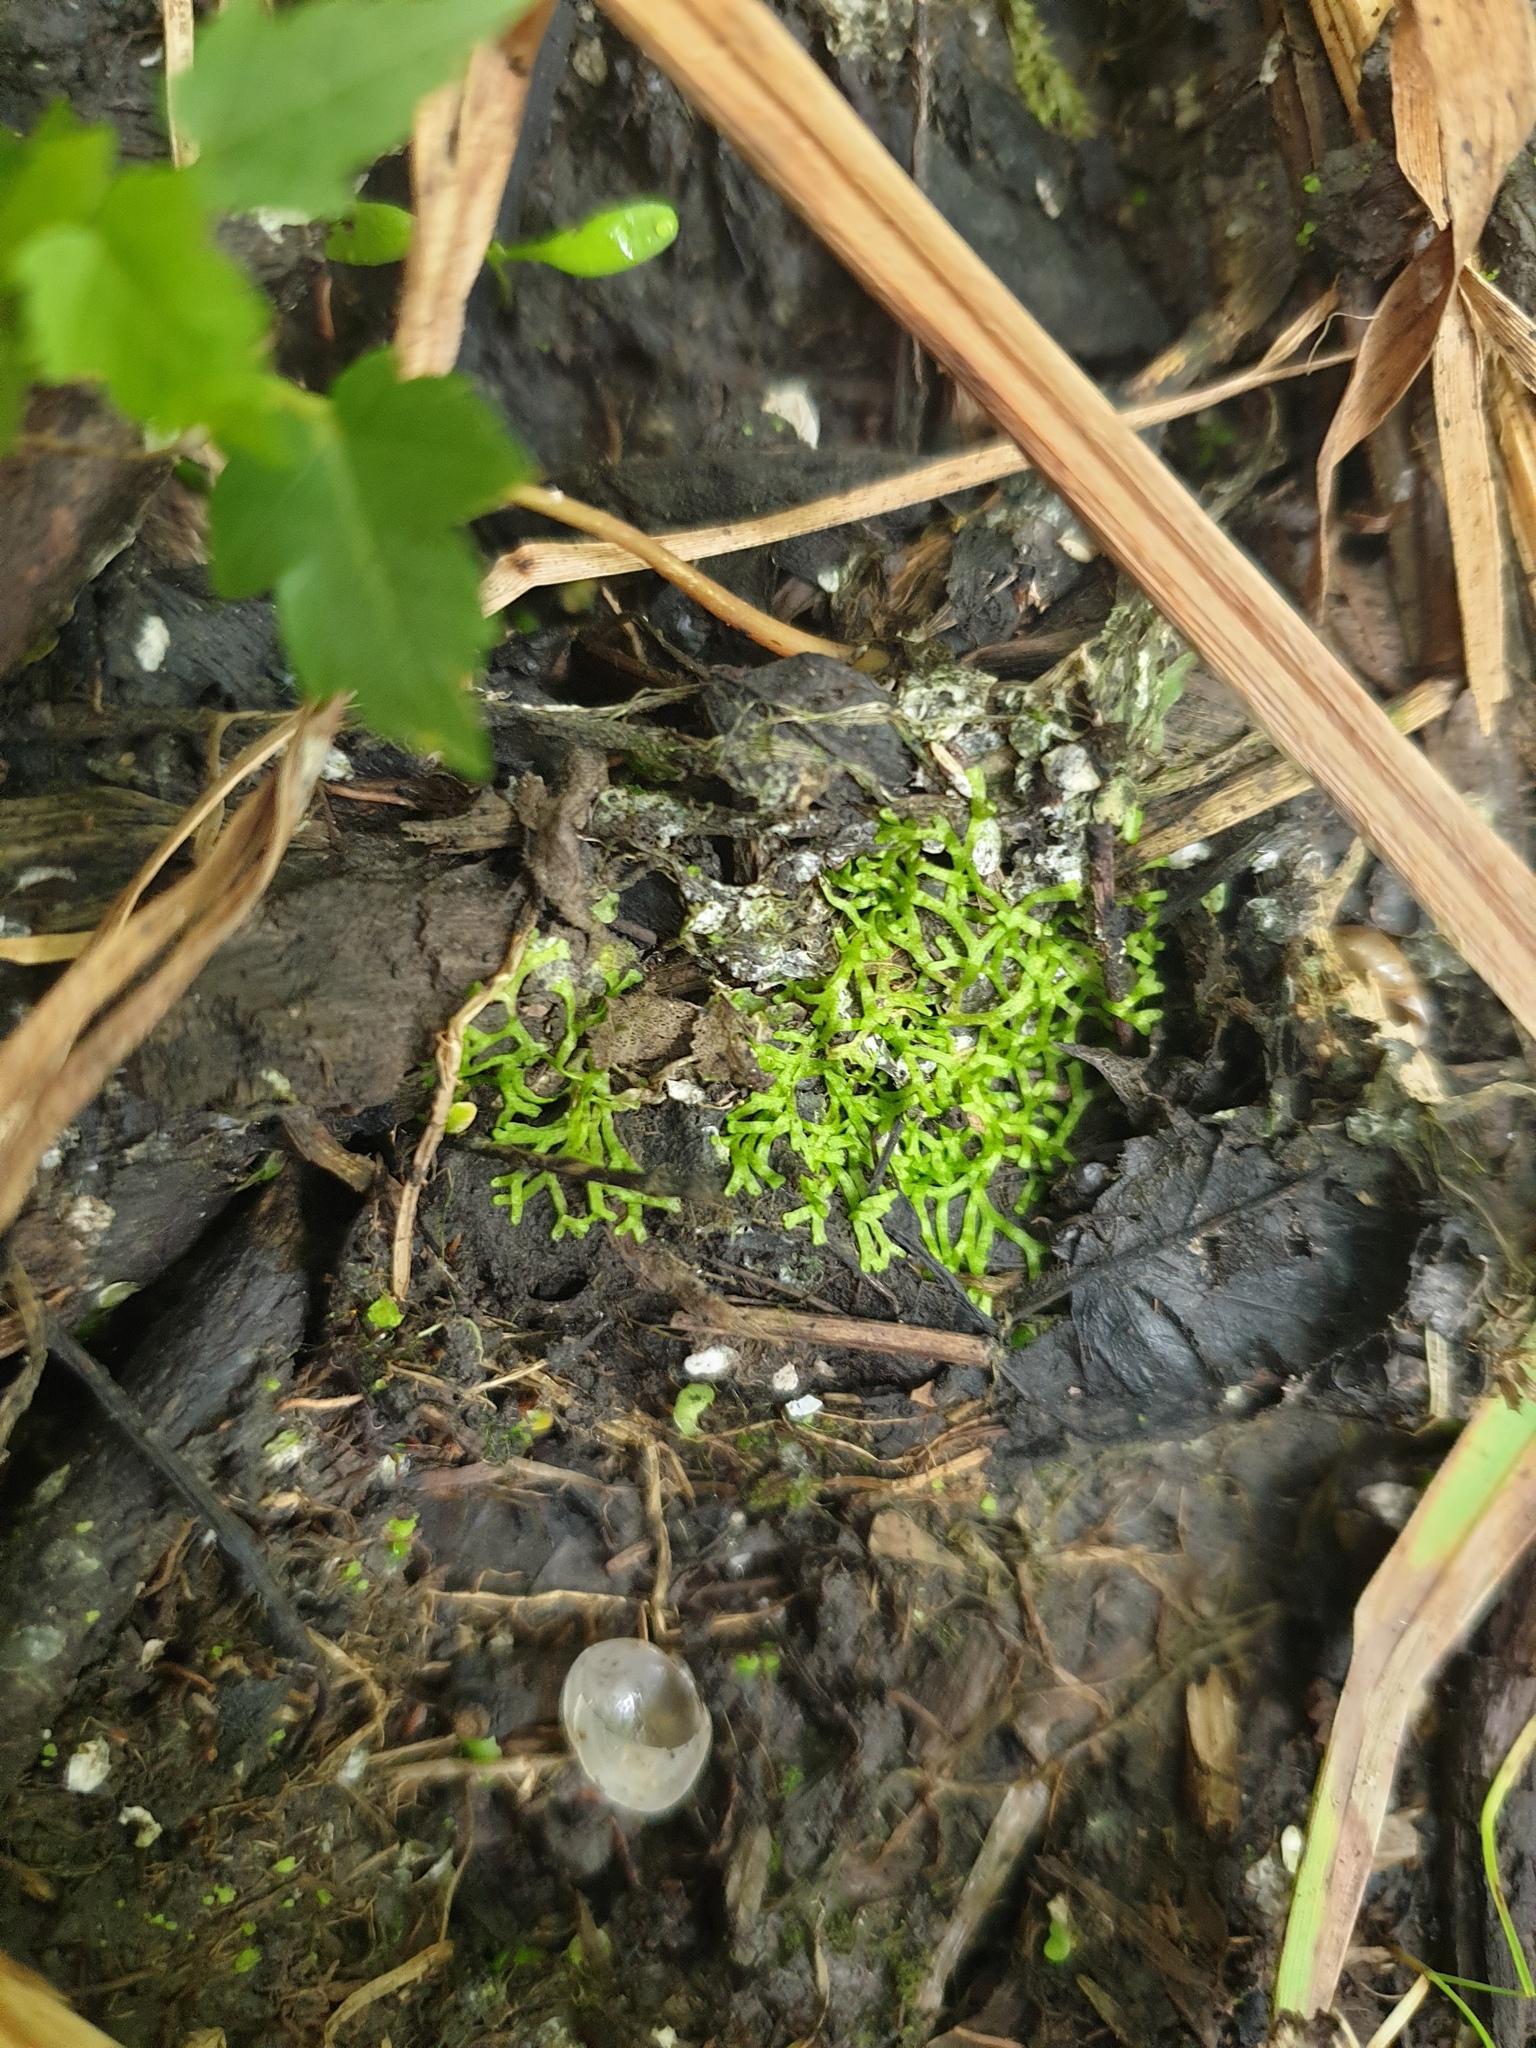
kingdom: Plantae
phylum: Marchantiophyta
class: Marchantiopsida
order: Marchantiales
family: Ricciaceae
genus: Riccia
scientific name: Riccia fluitans
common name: Floating crystalwort
